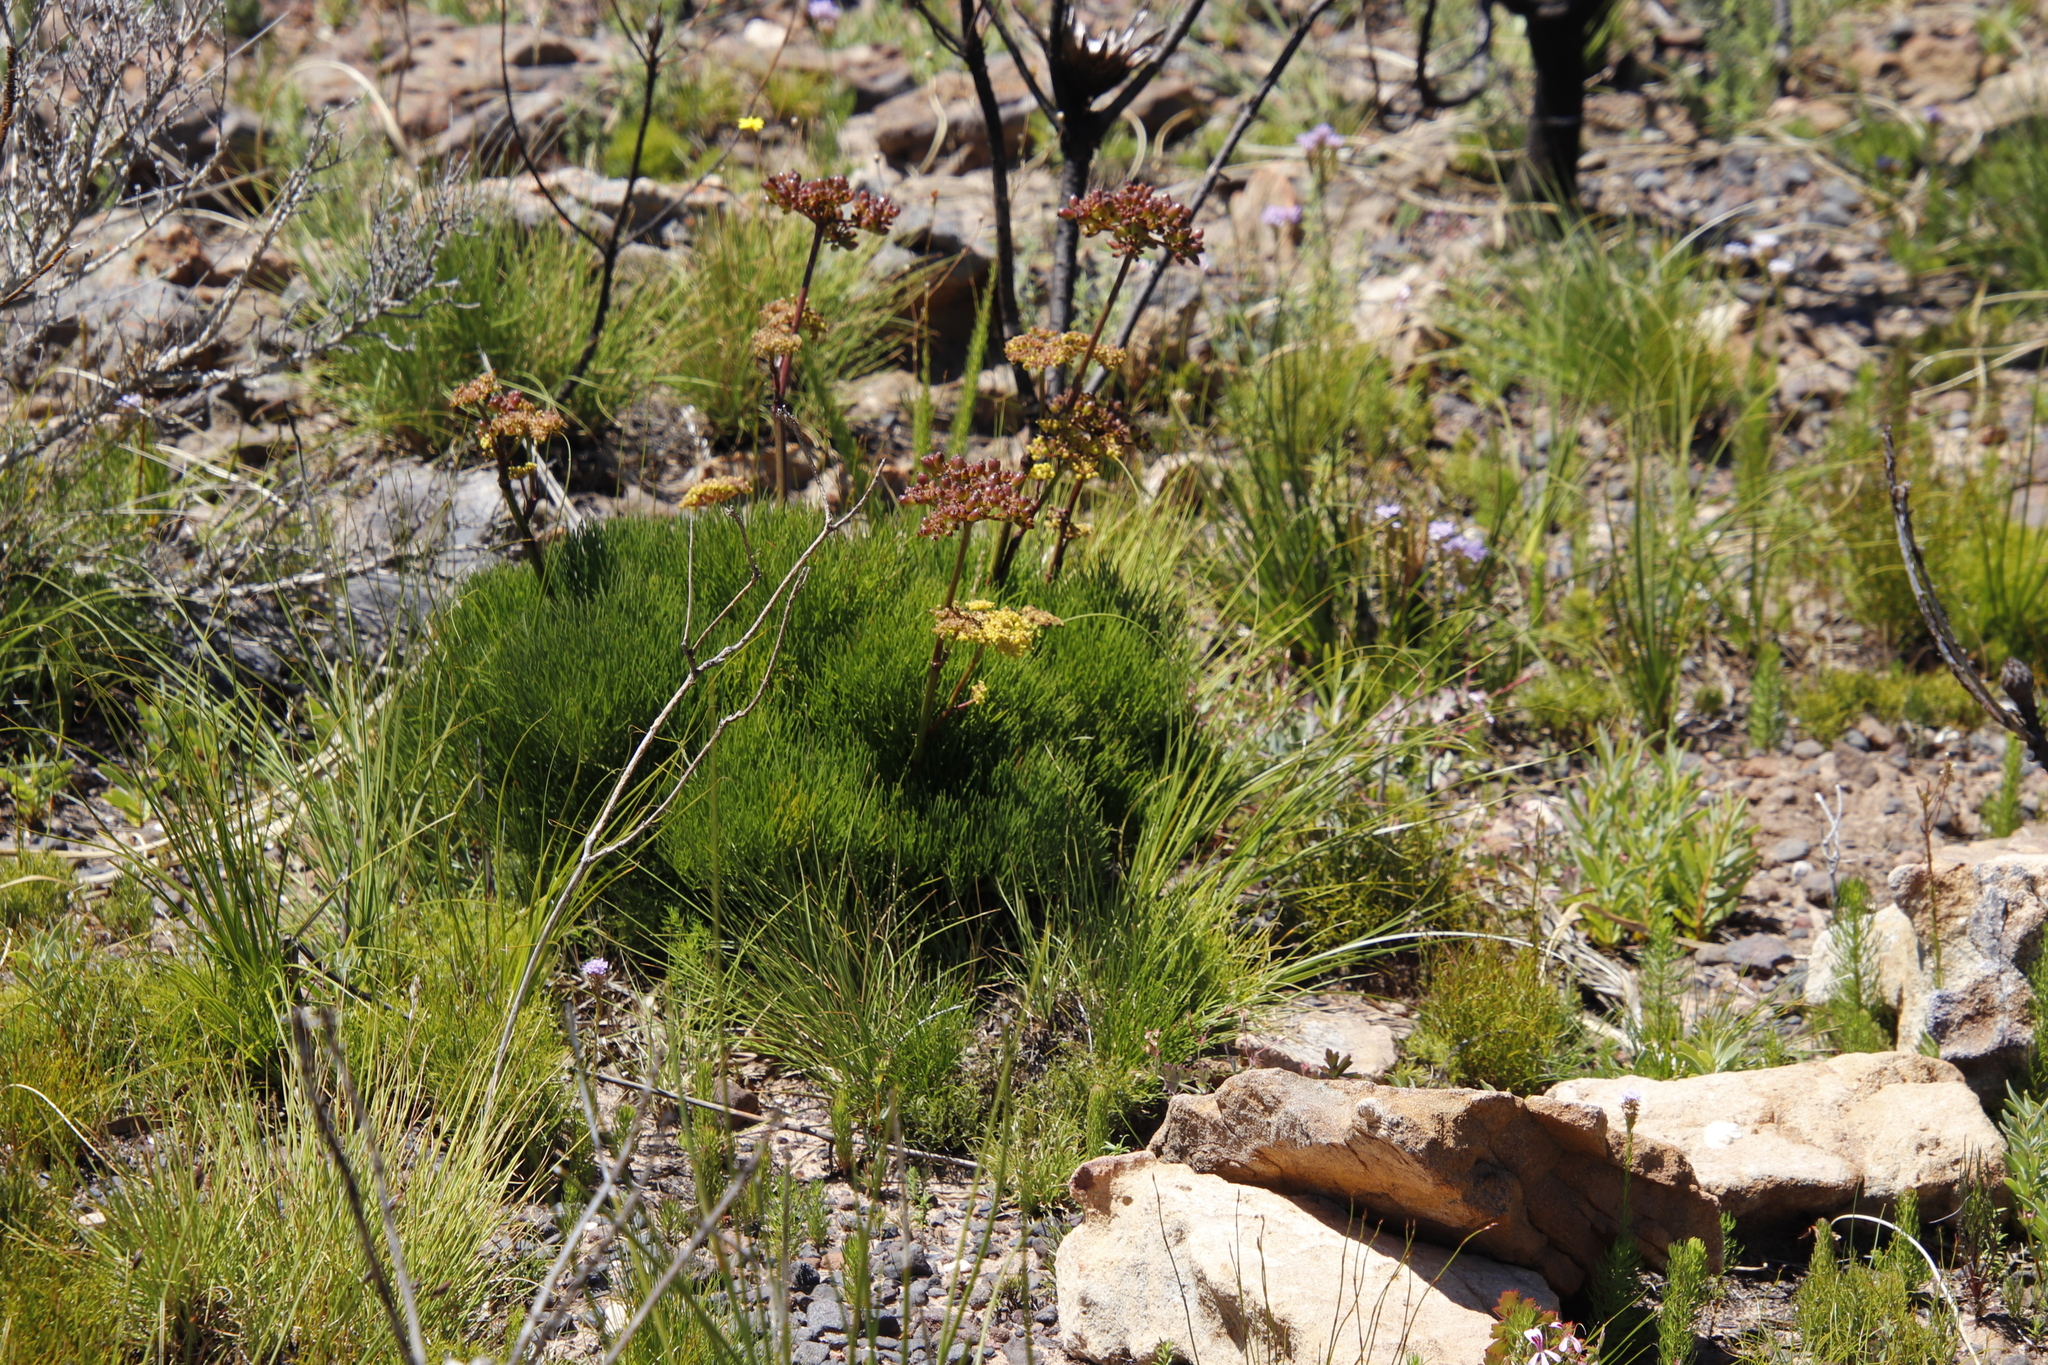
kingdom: Plantae
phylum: Tracheophyta
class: Magnoliopsida
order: Apiales
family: Apiaceae
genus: Nanobubon
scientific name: Nanobubon strictum
